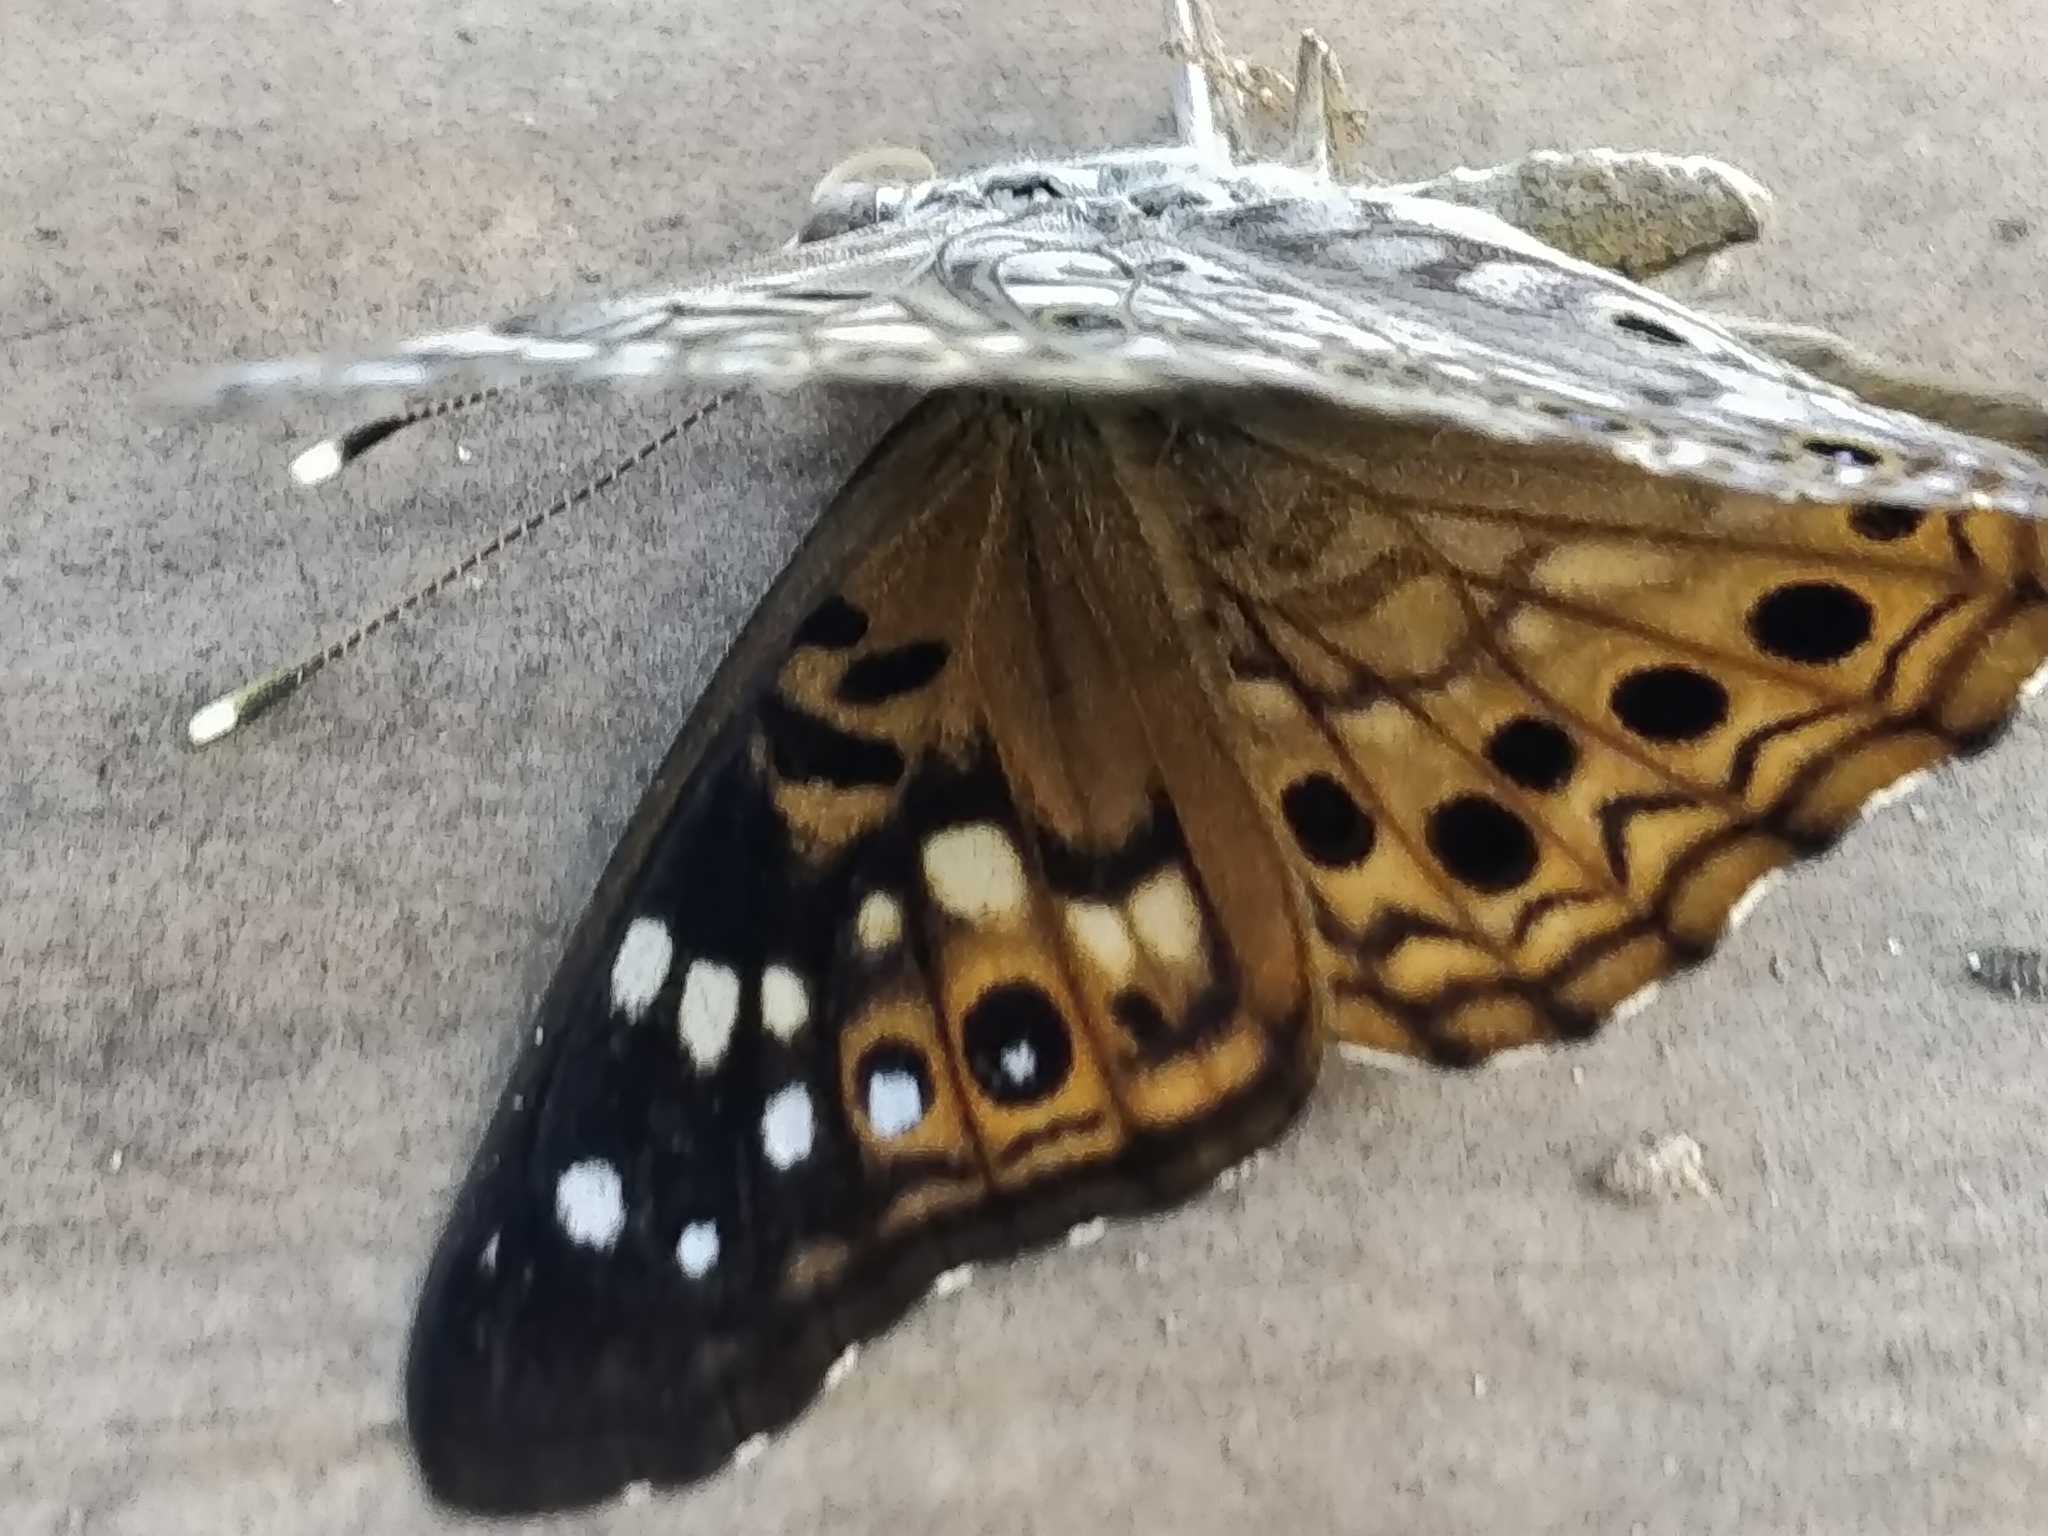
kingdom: Animalia
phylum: Arthropoda
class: Insecta
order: Lepidoptera
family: Nymphalidae
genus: Asterocampa
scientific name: Asterocampa celtis
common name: Hackberry emperor
